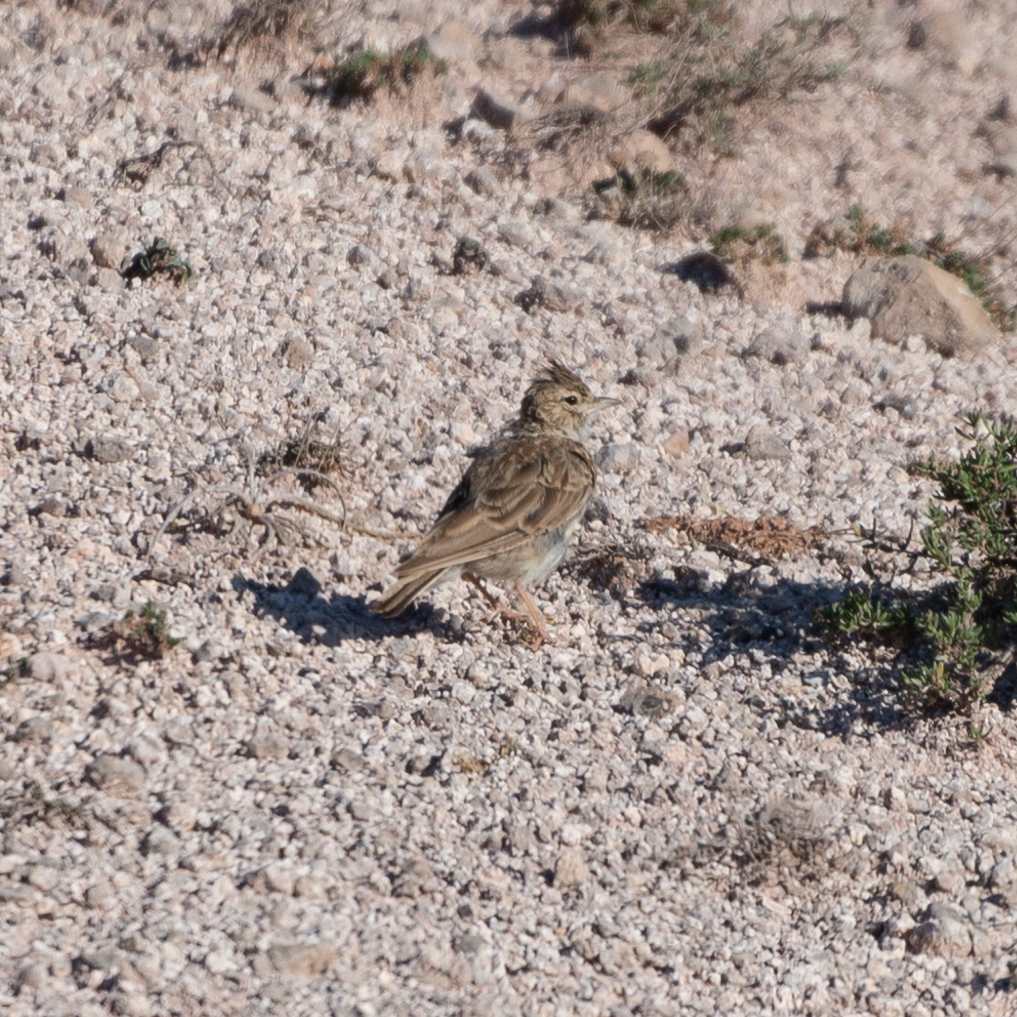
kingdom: Animalia
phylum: Chordata
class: Aves
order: Passeriformes
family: Alaudidae
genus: Galerida
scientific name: Galerida theklae
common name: Thekla lark
